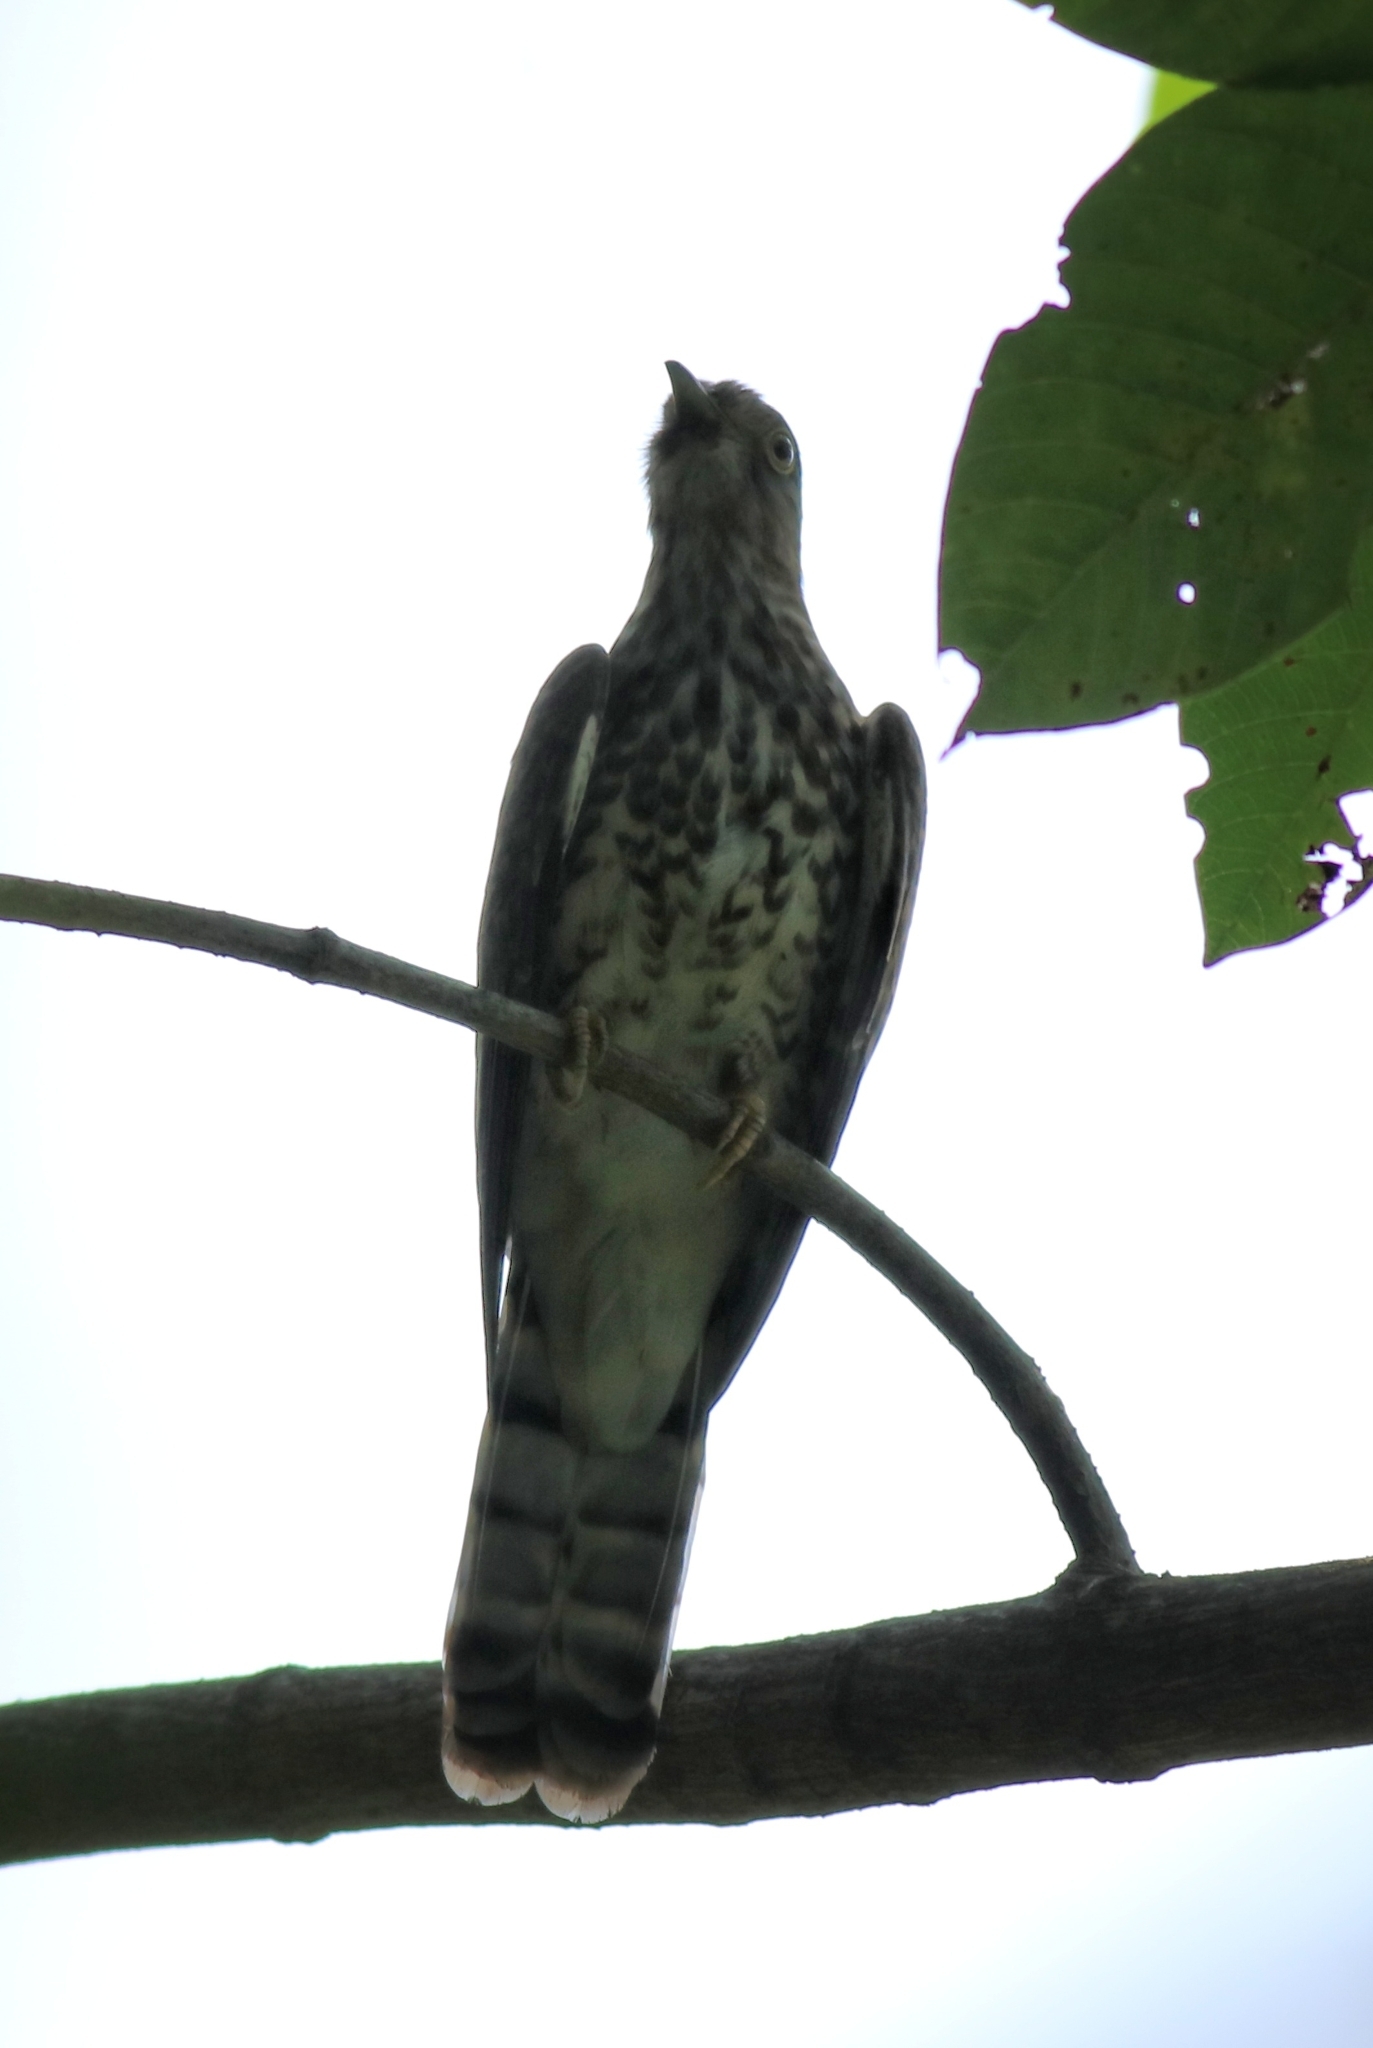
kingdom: Animalia
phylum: Chordata
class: Aves
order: Cuculiformes
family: Cuculidae
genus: Cuculus
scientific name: Cuculus varius
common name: Common hawk cuckoo
